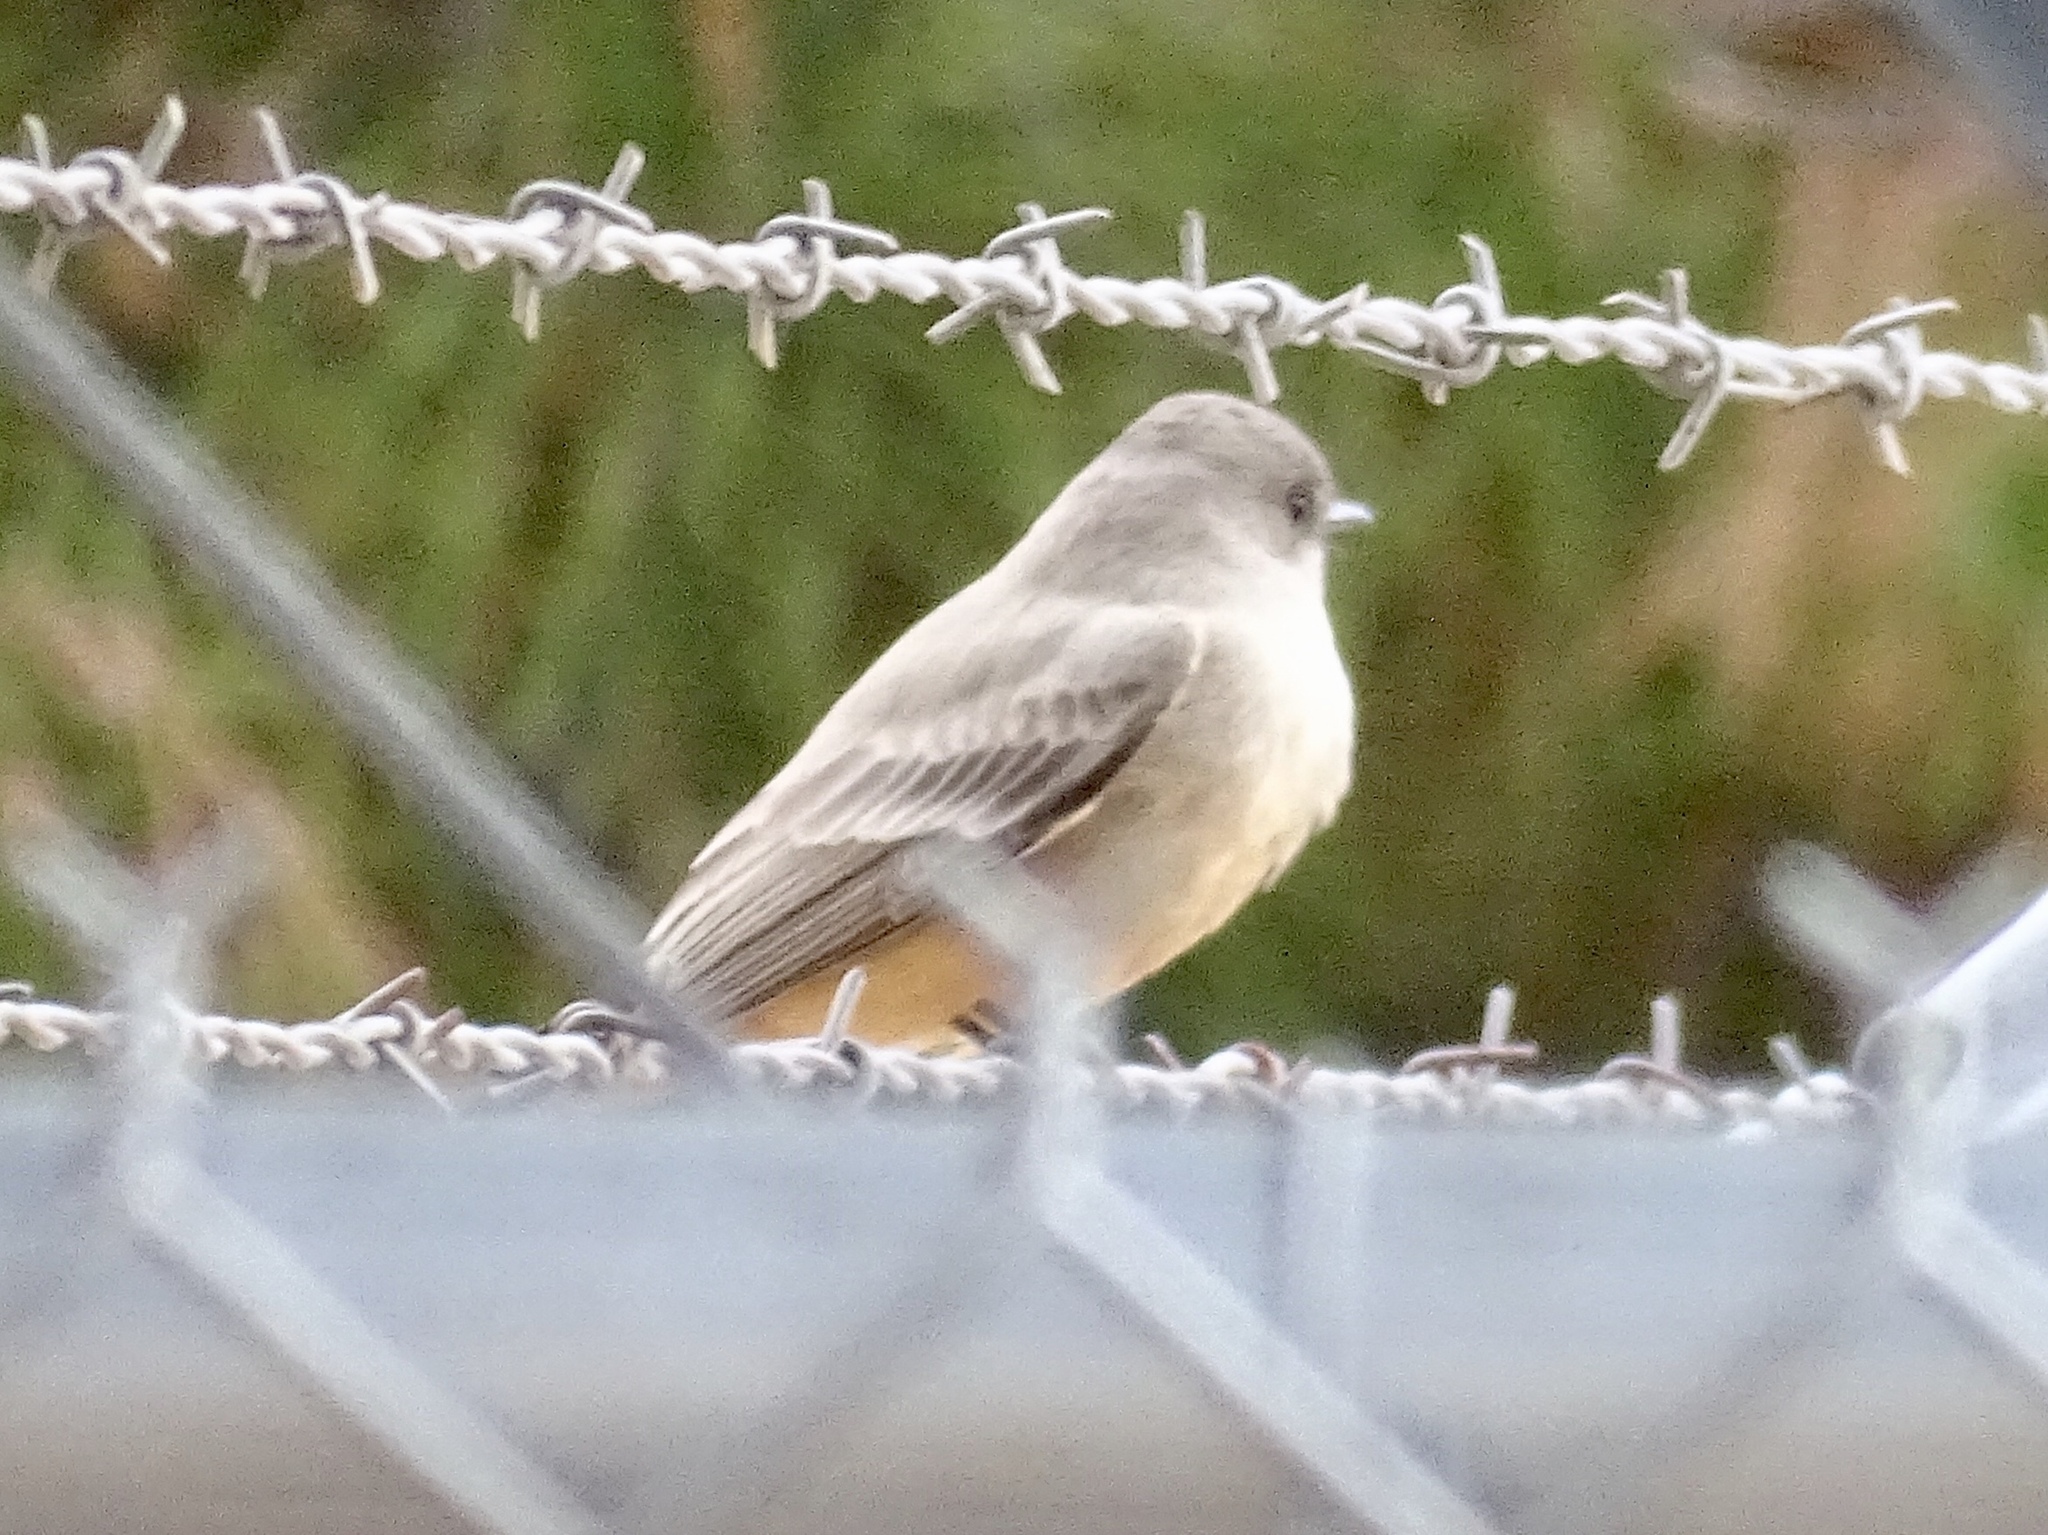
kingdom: Animalia
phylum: Chordata
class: Aves
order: Passeriformes
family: Tyrannidae
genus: Sayornis
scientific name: Sayornis saya
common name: Say's phoebe
